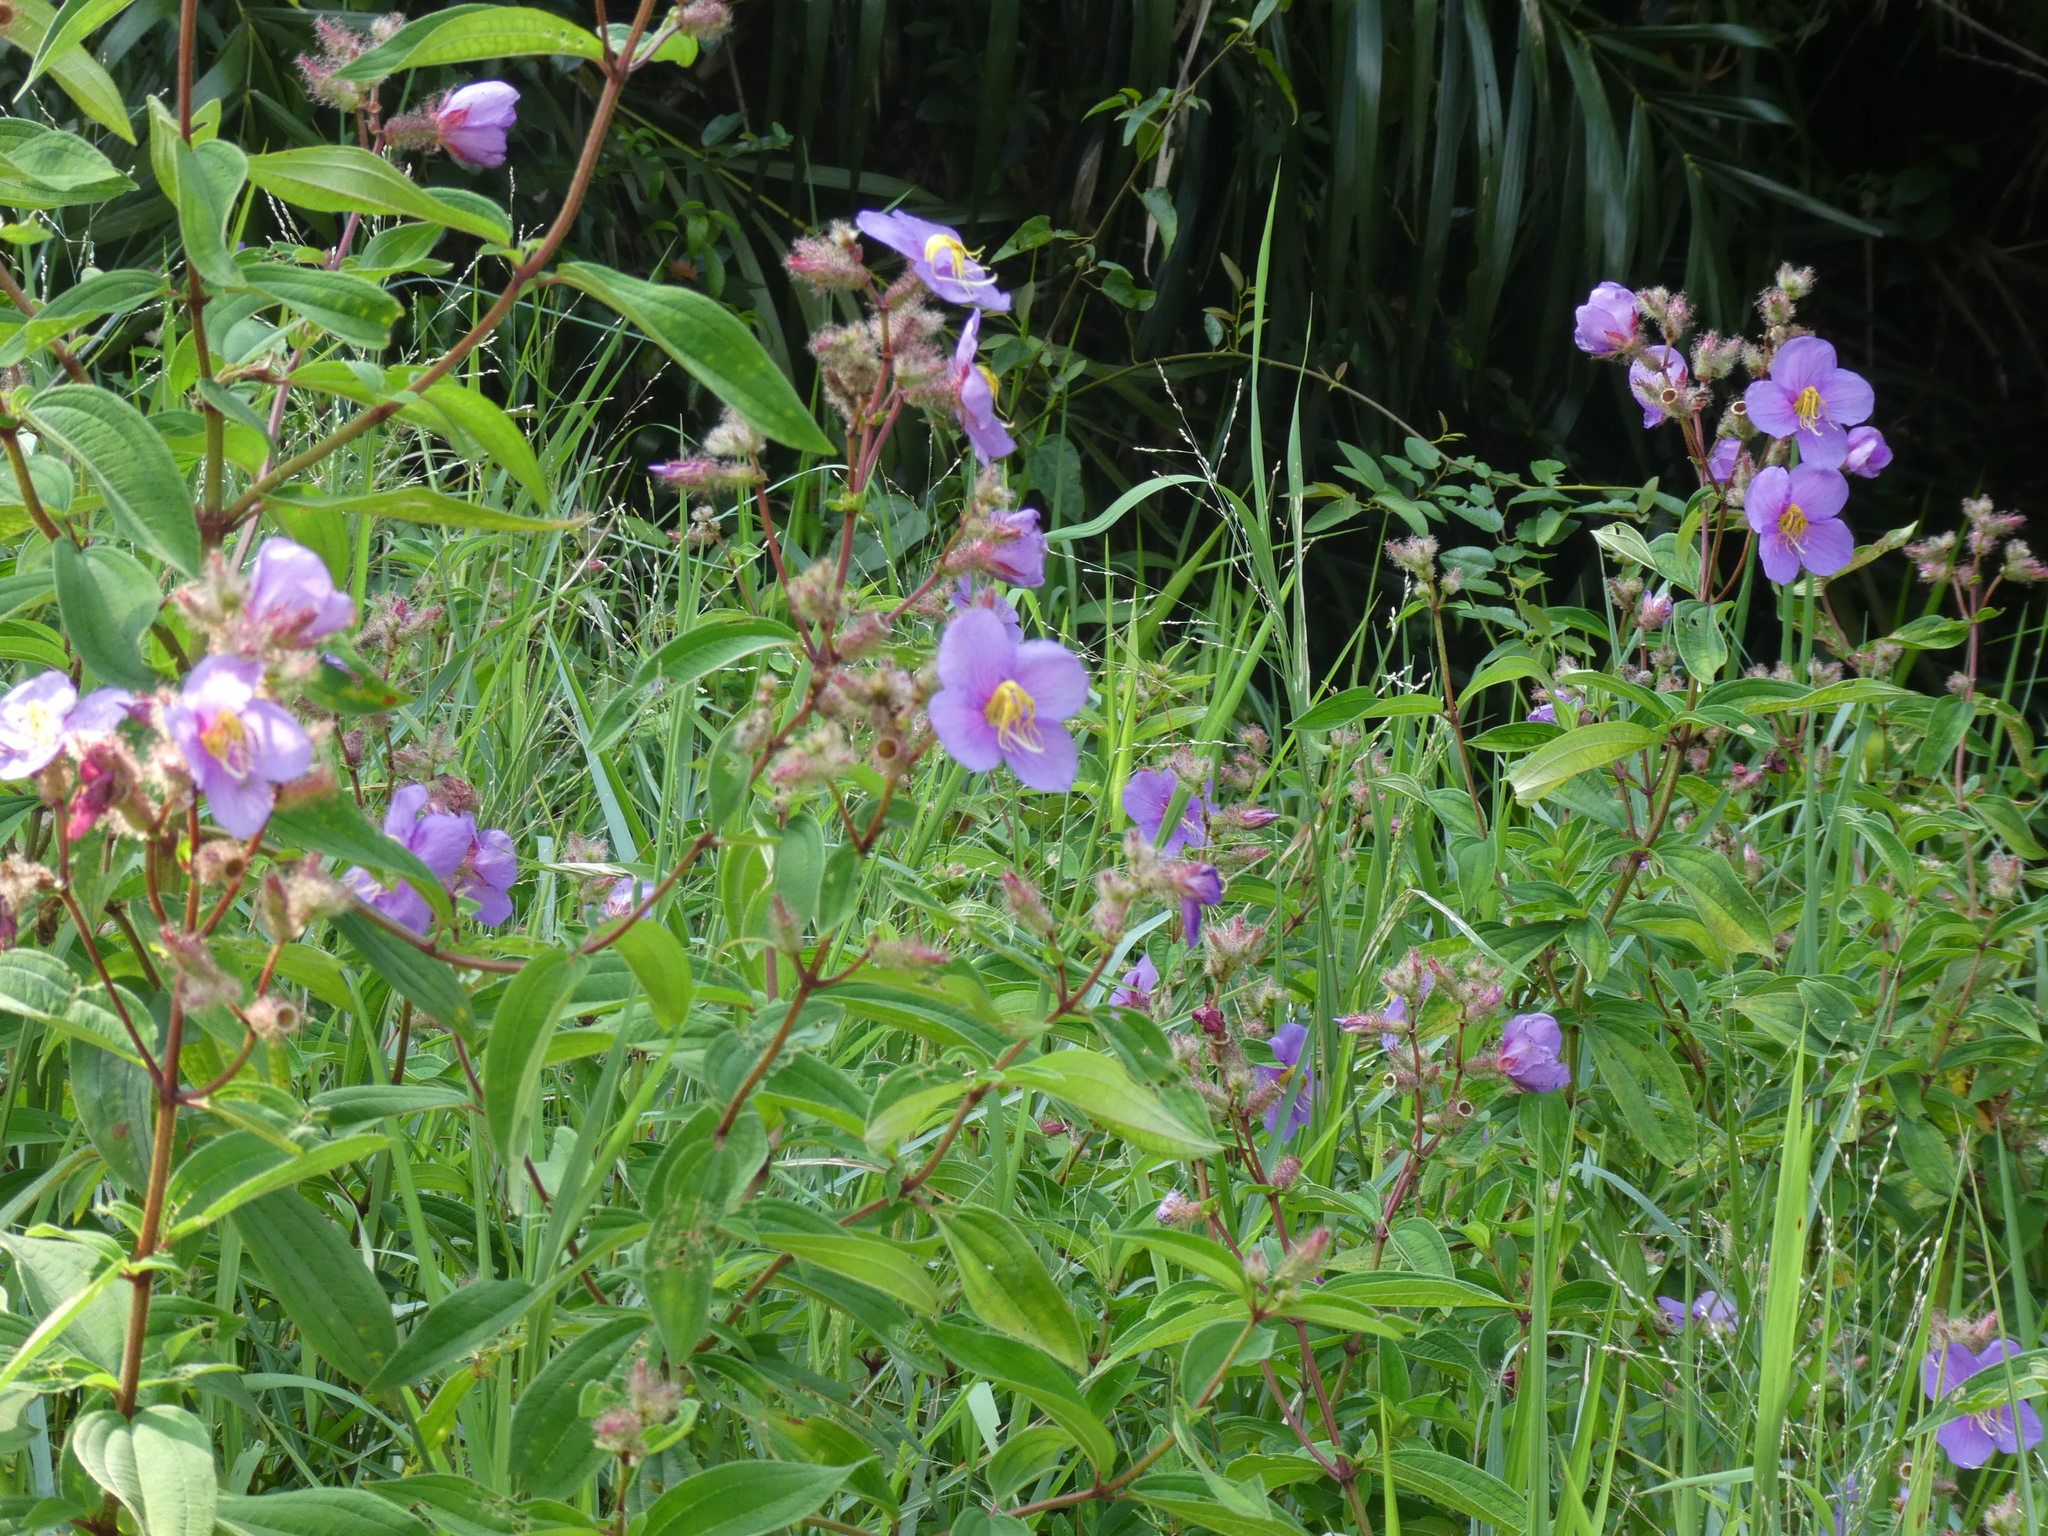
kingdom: Plantae
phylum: Tracheophyta
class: Magnoliopsida
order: Myrtales
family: Melastomataceae
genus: Osbeckia
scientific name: Osbeckia stellata
